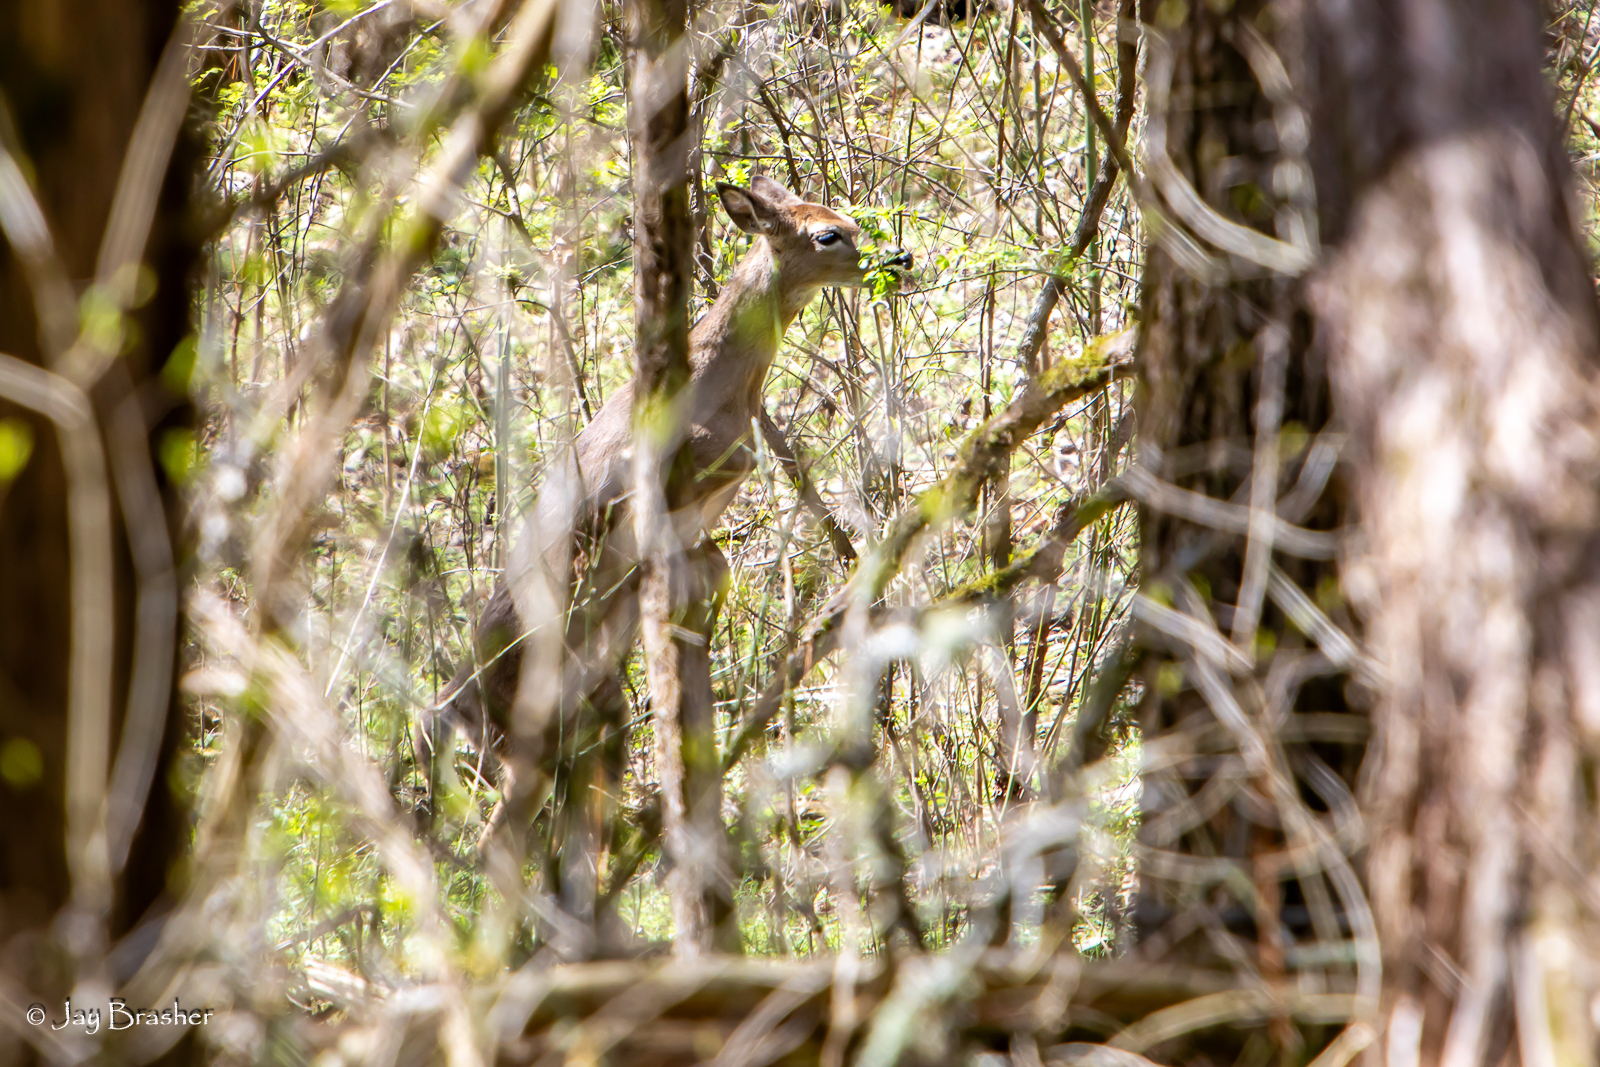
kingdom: Animalia
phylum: Chordata
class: Mammalia
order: Artiodactyla
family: Cervidae
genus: Odocoileus
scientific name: Odocoileus virginianus
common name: White-tailed deer
